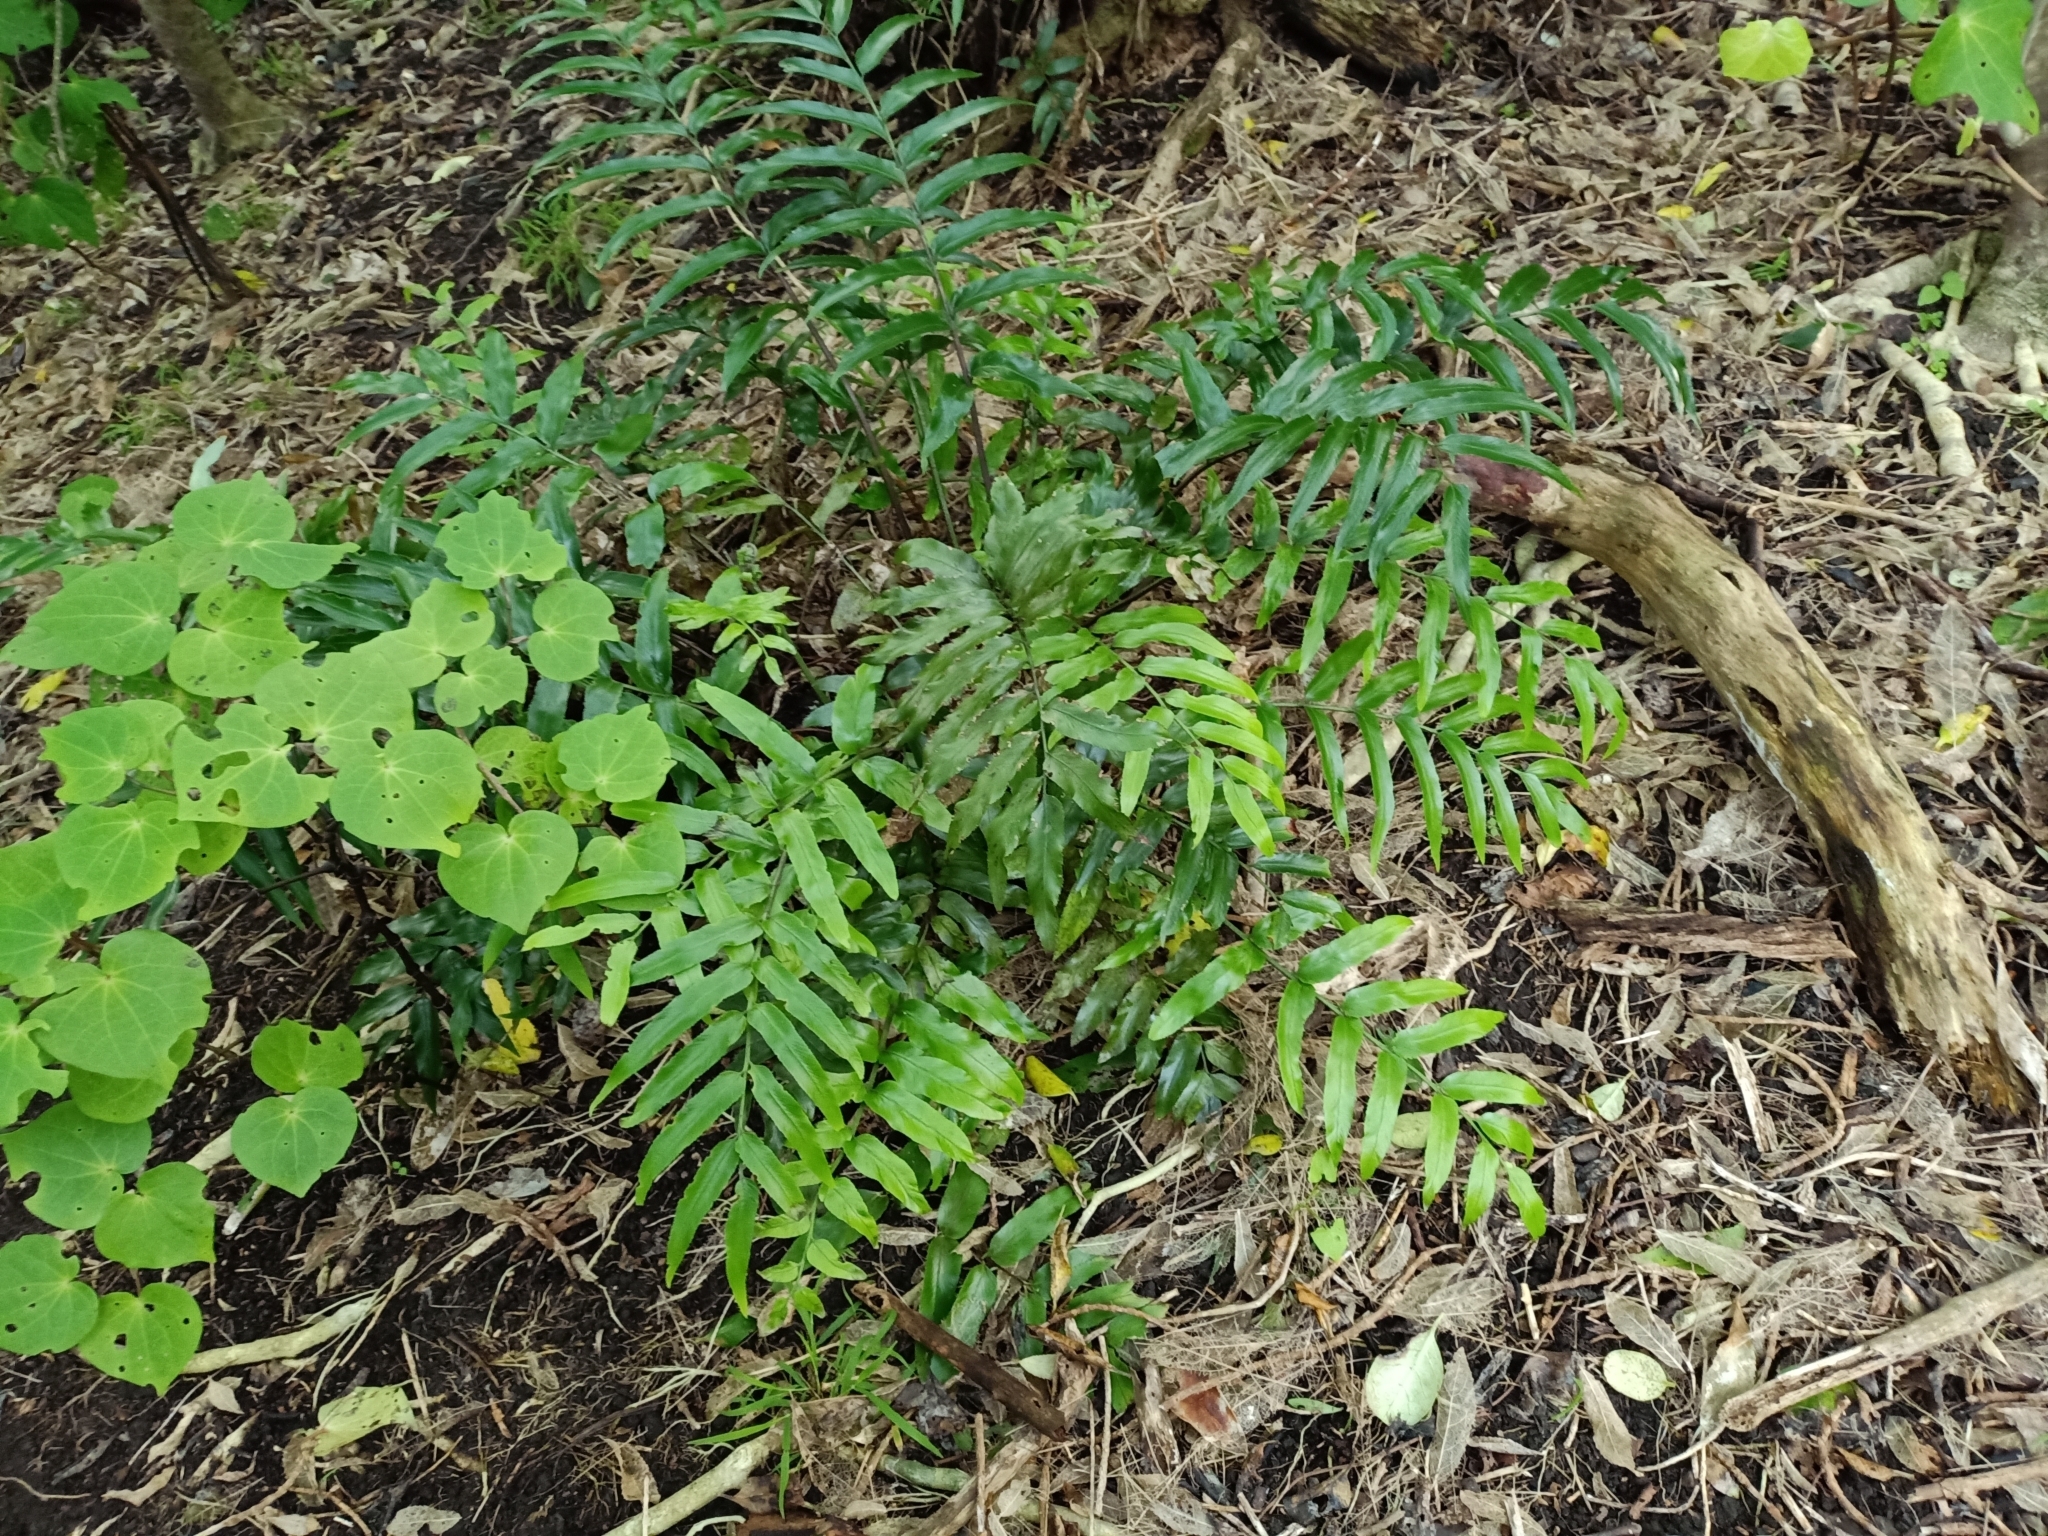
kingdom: Plantae
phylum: Tracheophyta
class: Polypodiopsida
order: Polypodiales
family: Aspleniaceae
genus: Asplenium
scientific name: Asplenium oblongifolium
